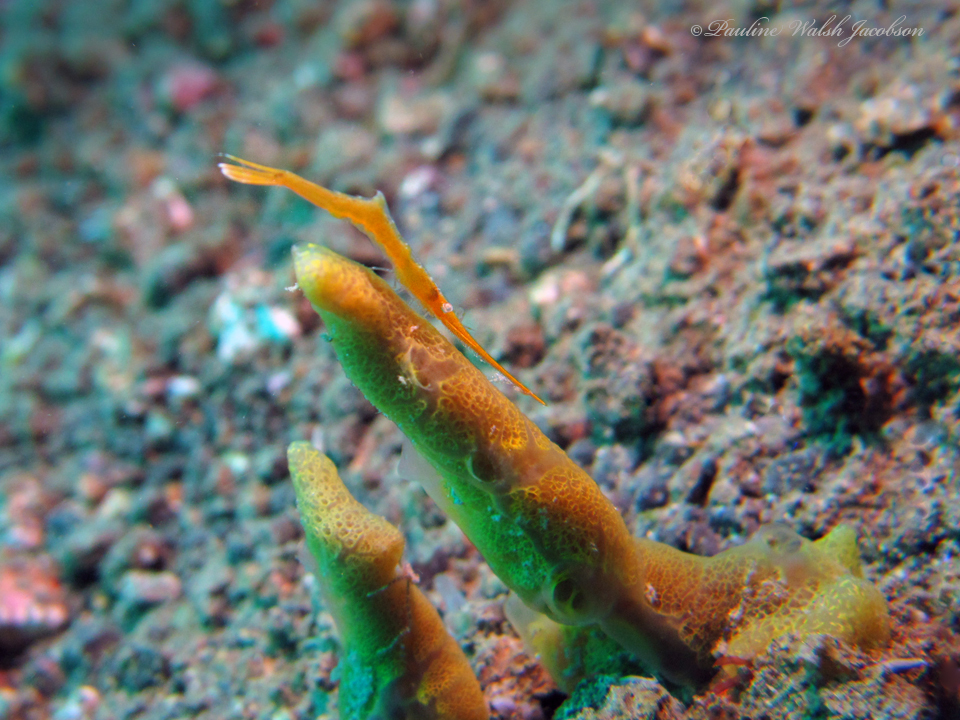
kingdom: Animalia
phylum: Arthropoda
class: Malacostraca
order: Decapoda
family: Hippolytidae
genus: Tozeuma
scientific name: Tozeuma lanceolatum
